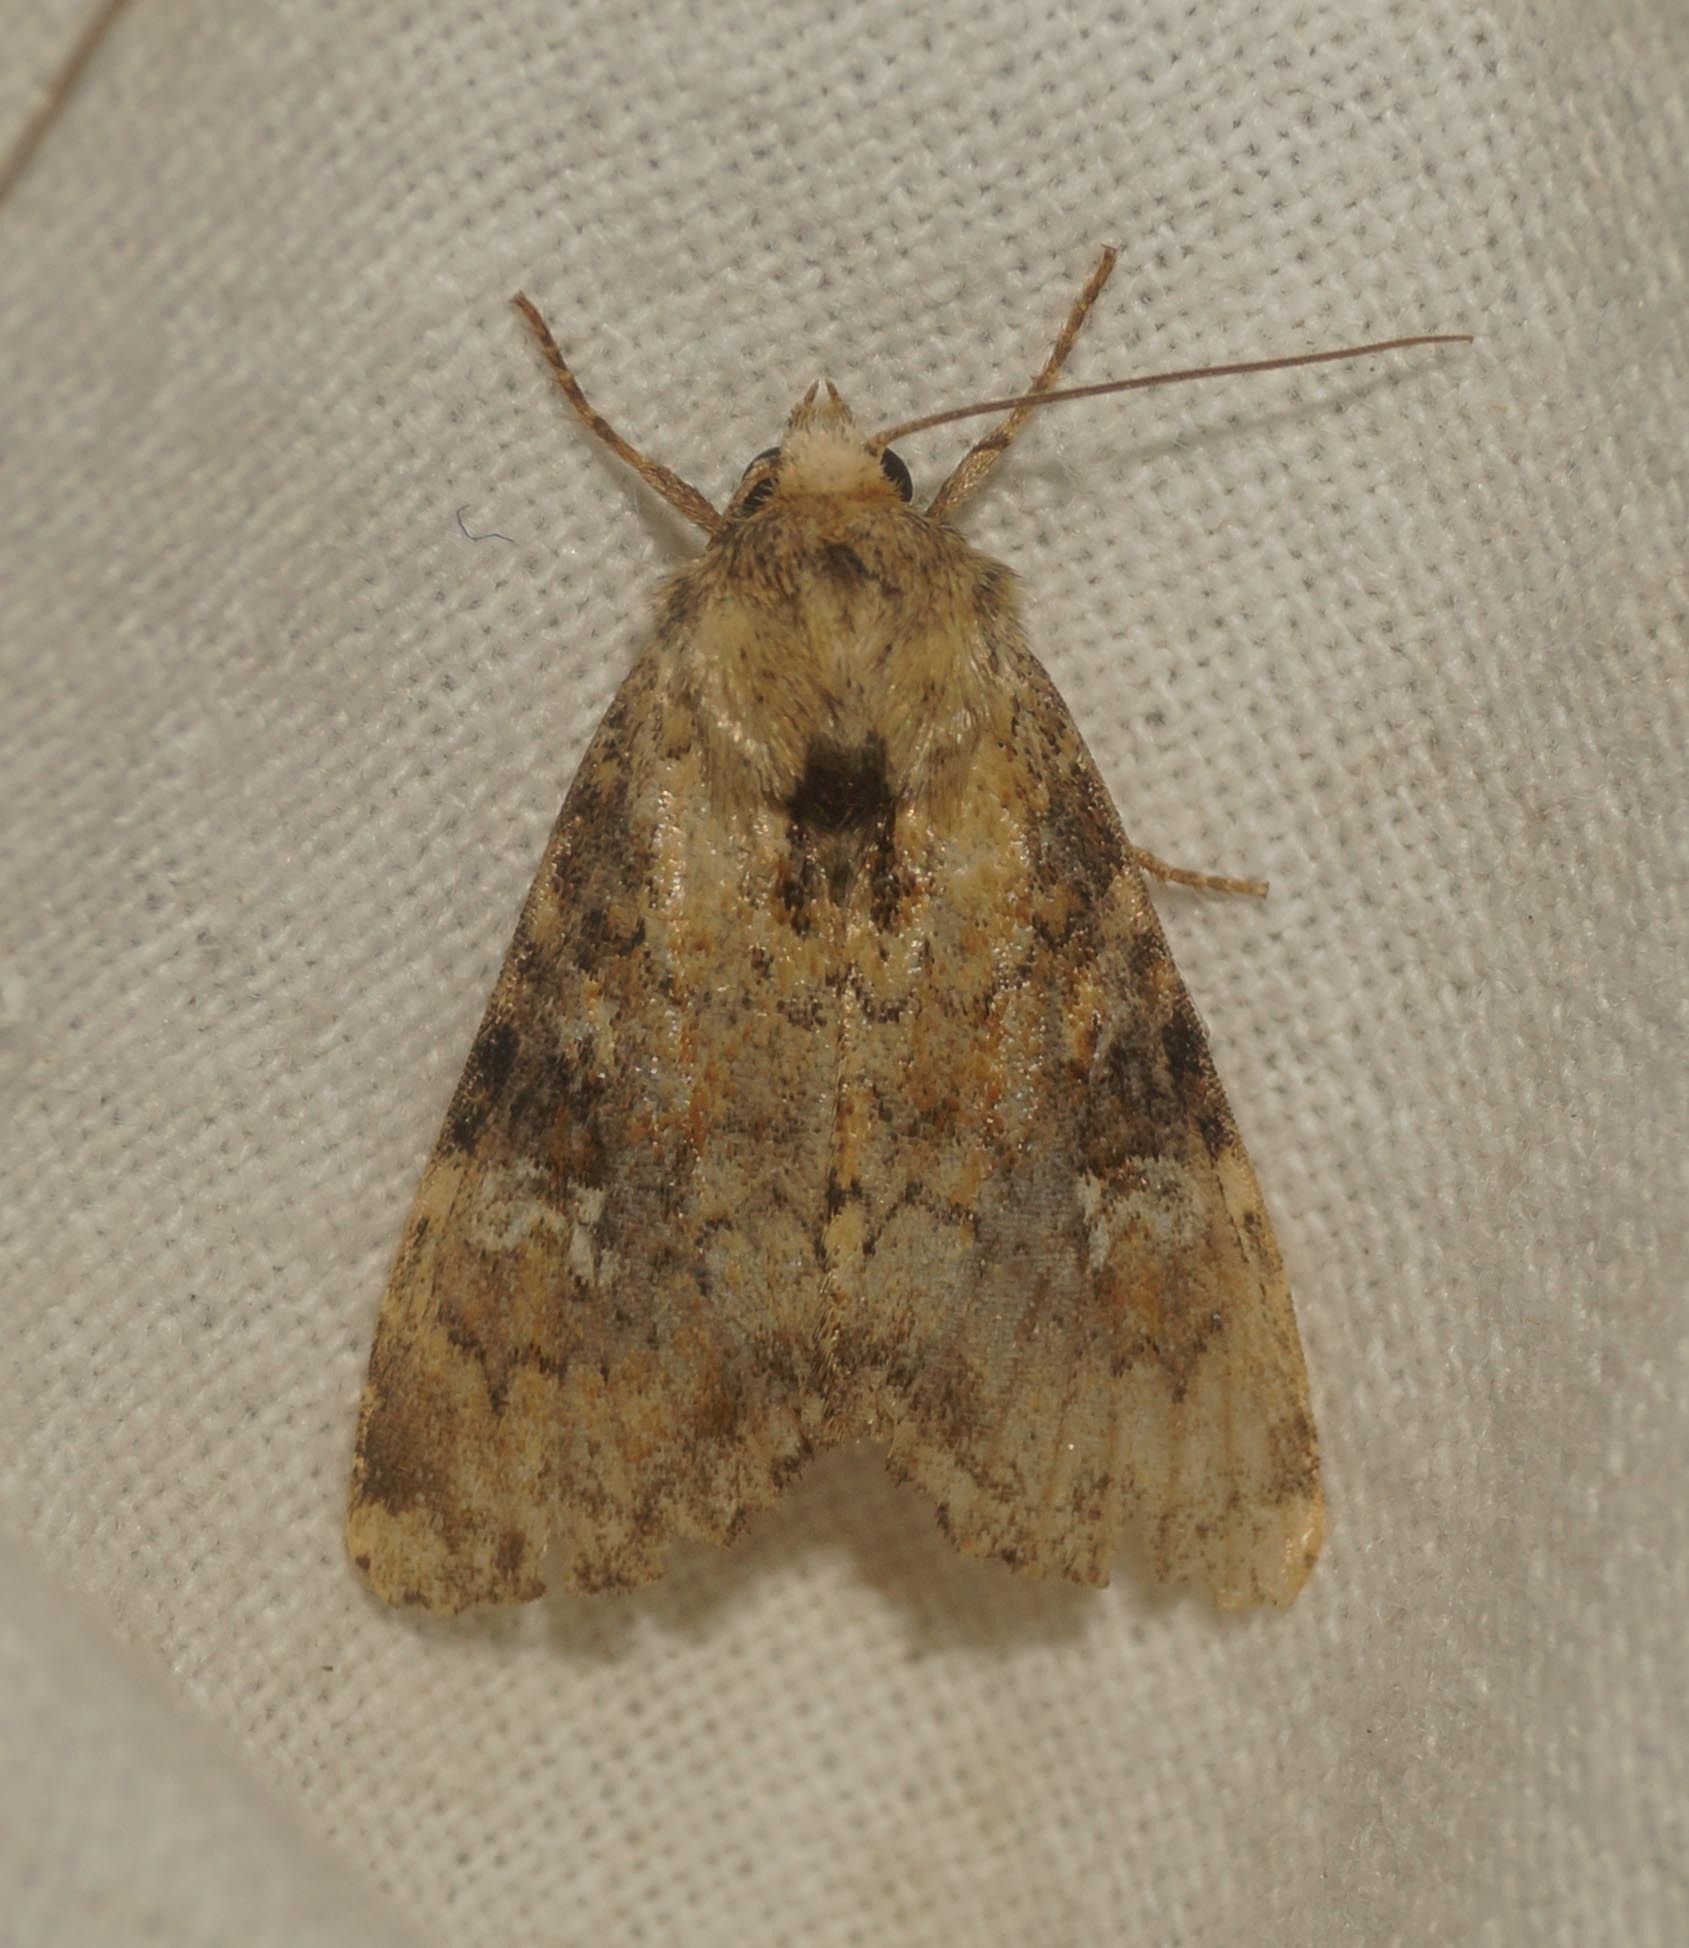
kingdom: Animalia
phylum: Arthropoda
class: Insecta
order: Lepidoptera
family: Noctuidae
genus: Loscopia
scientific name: Loscopia scolopacina
